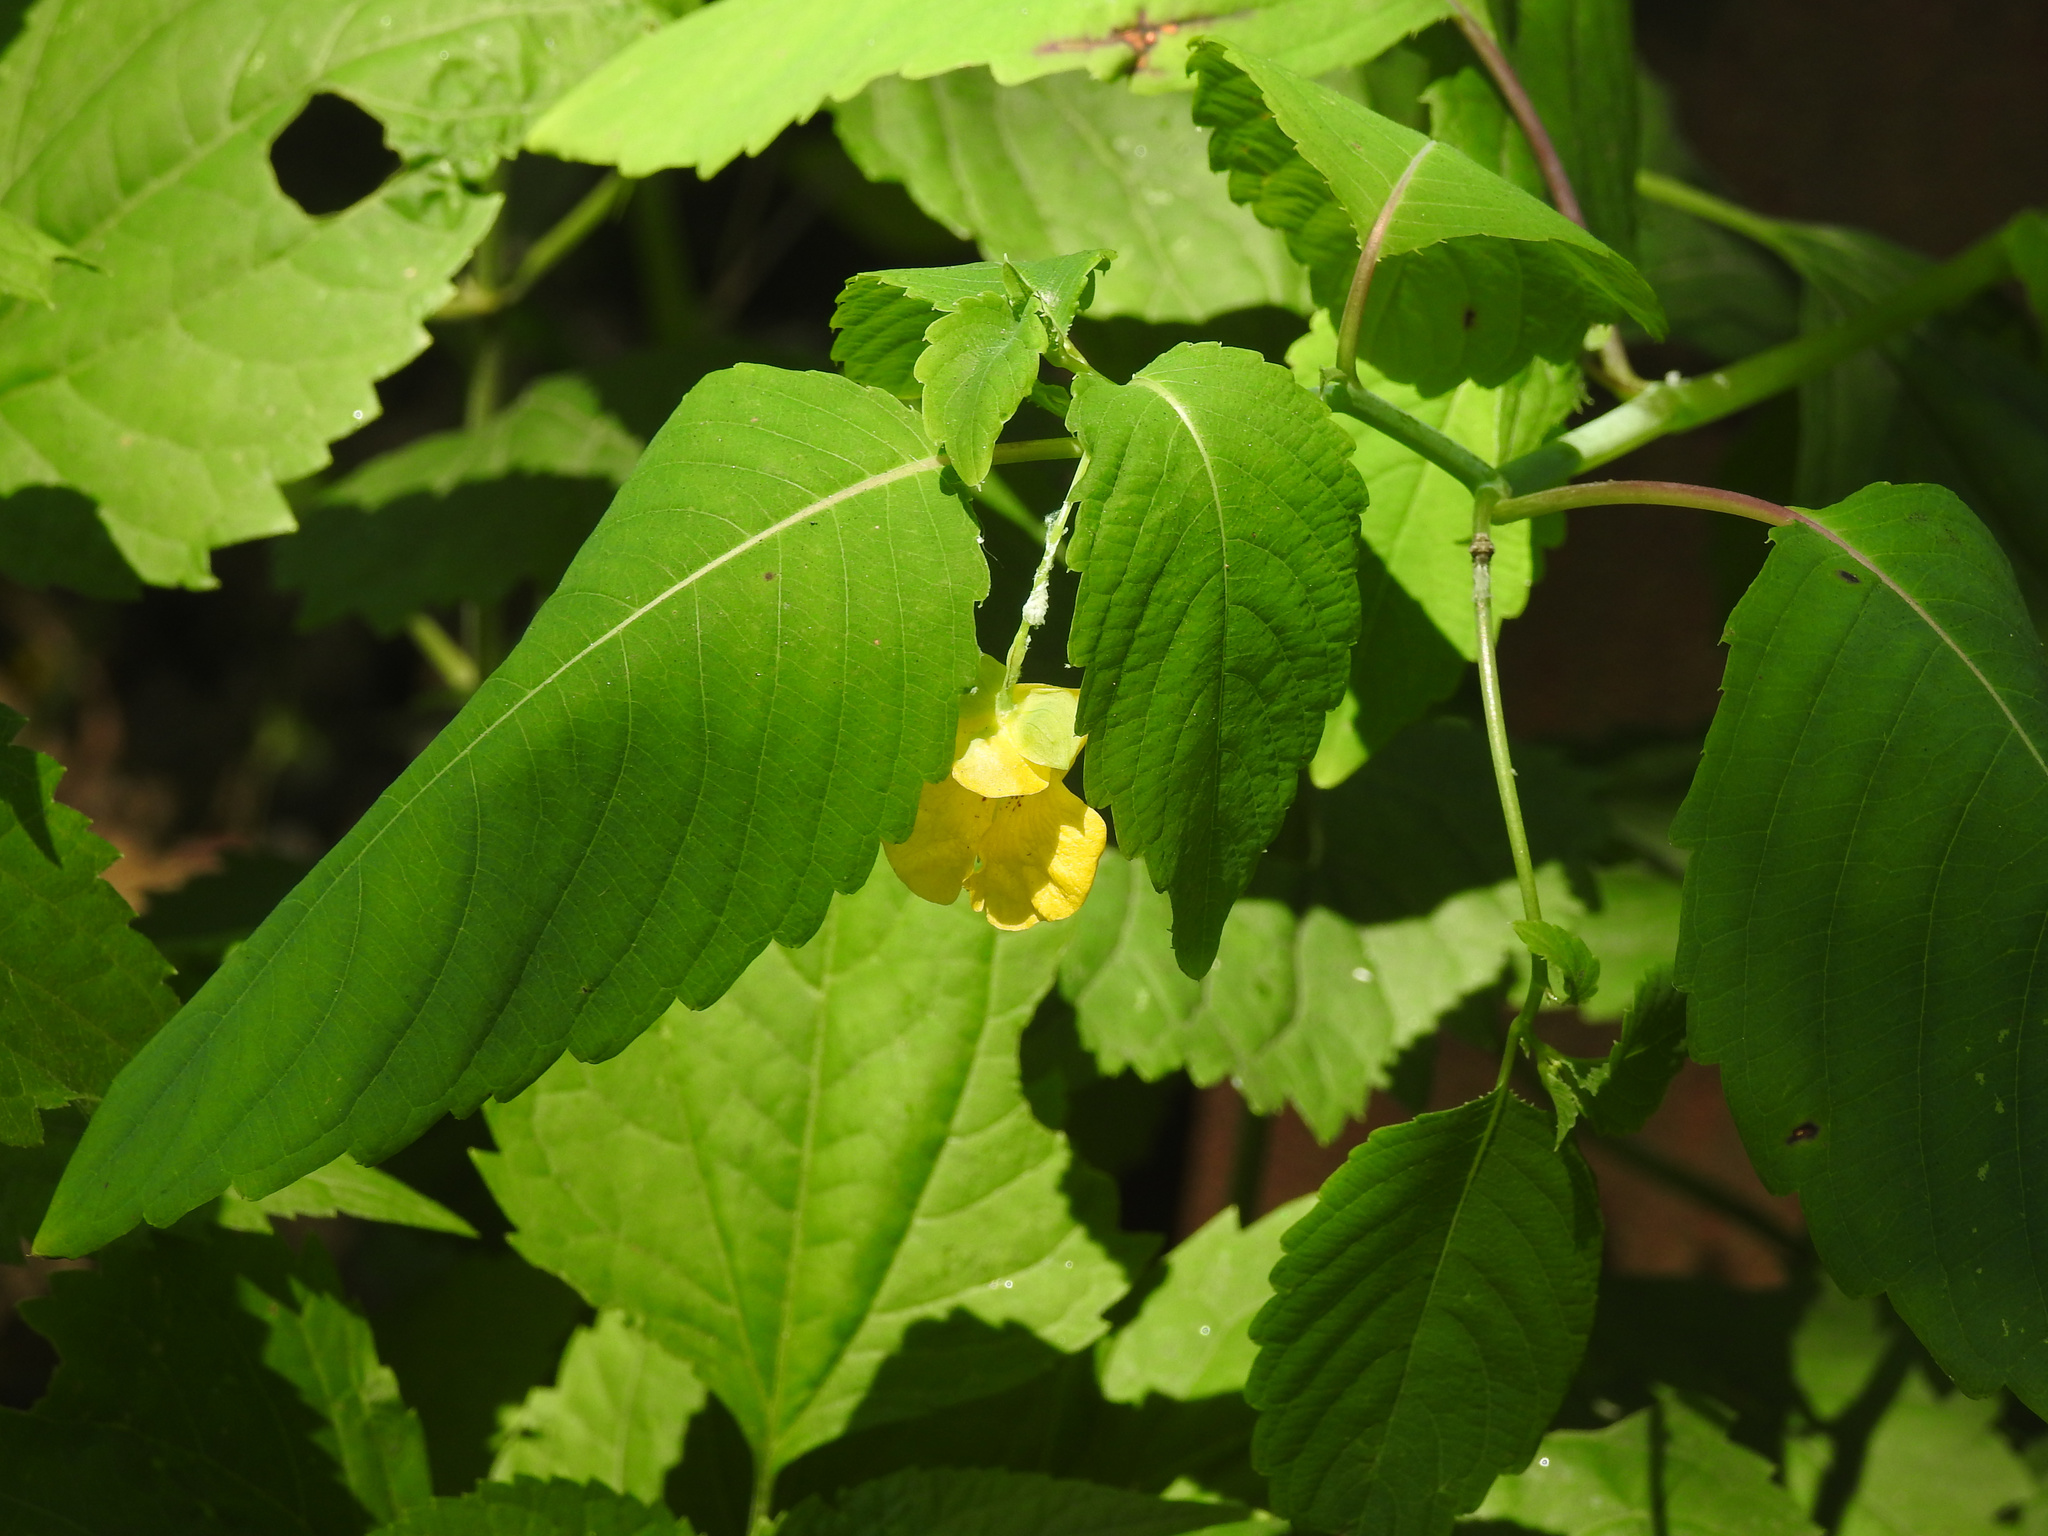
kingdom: Plantae
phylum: Tracheophyta
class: Magnoliopsida
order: Ericales
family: Balsaminaceae
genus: Impatiens
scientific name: Impatiens pallida
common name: Pale snapweed
